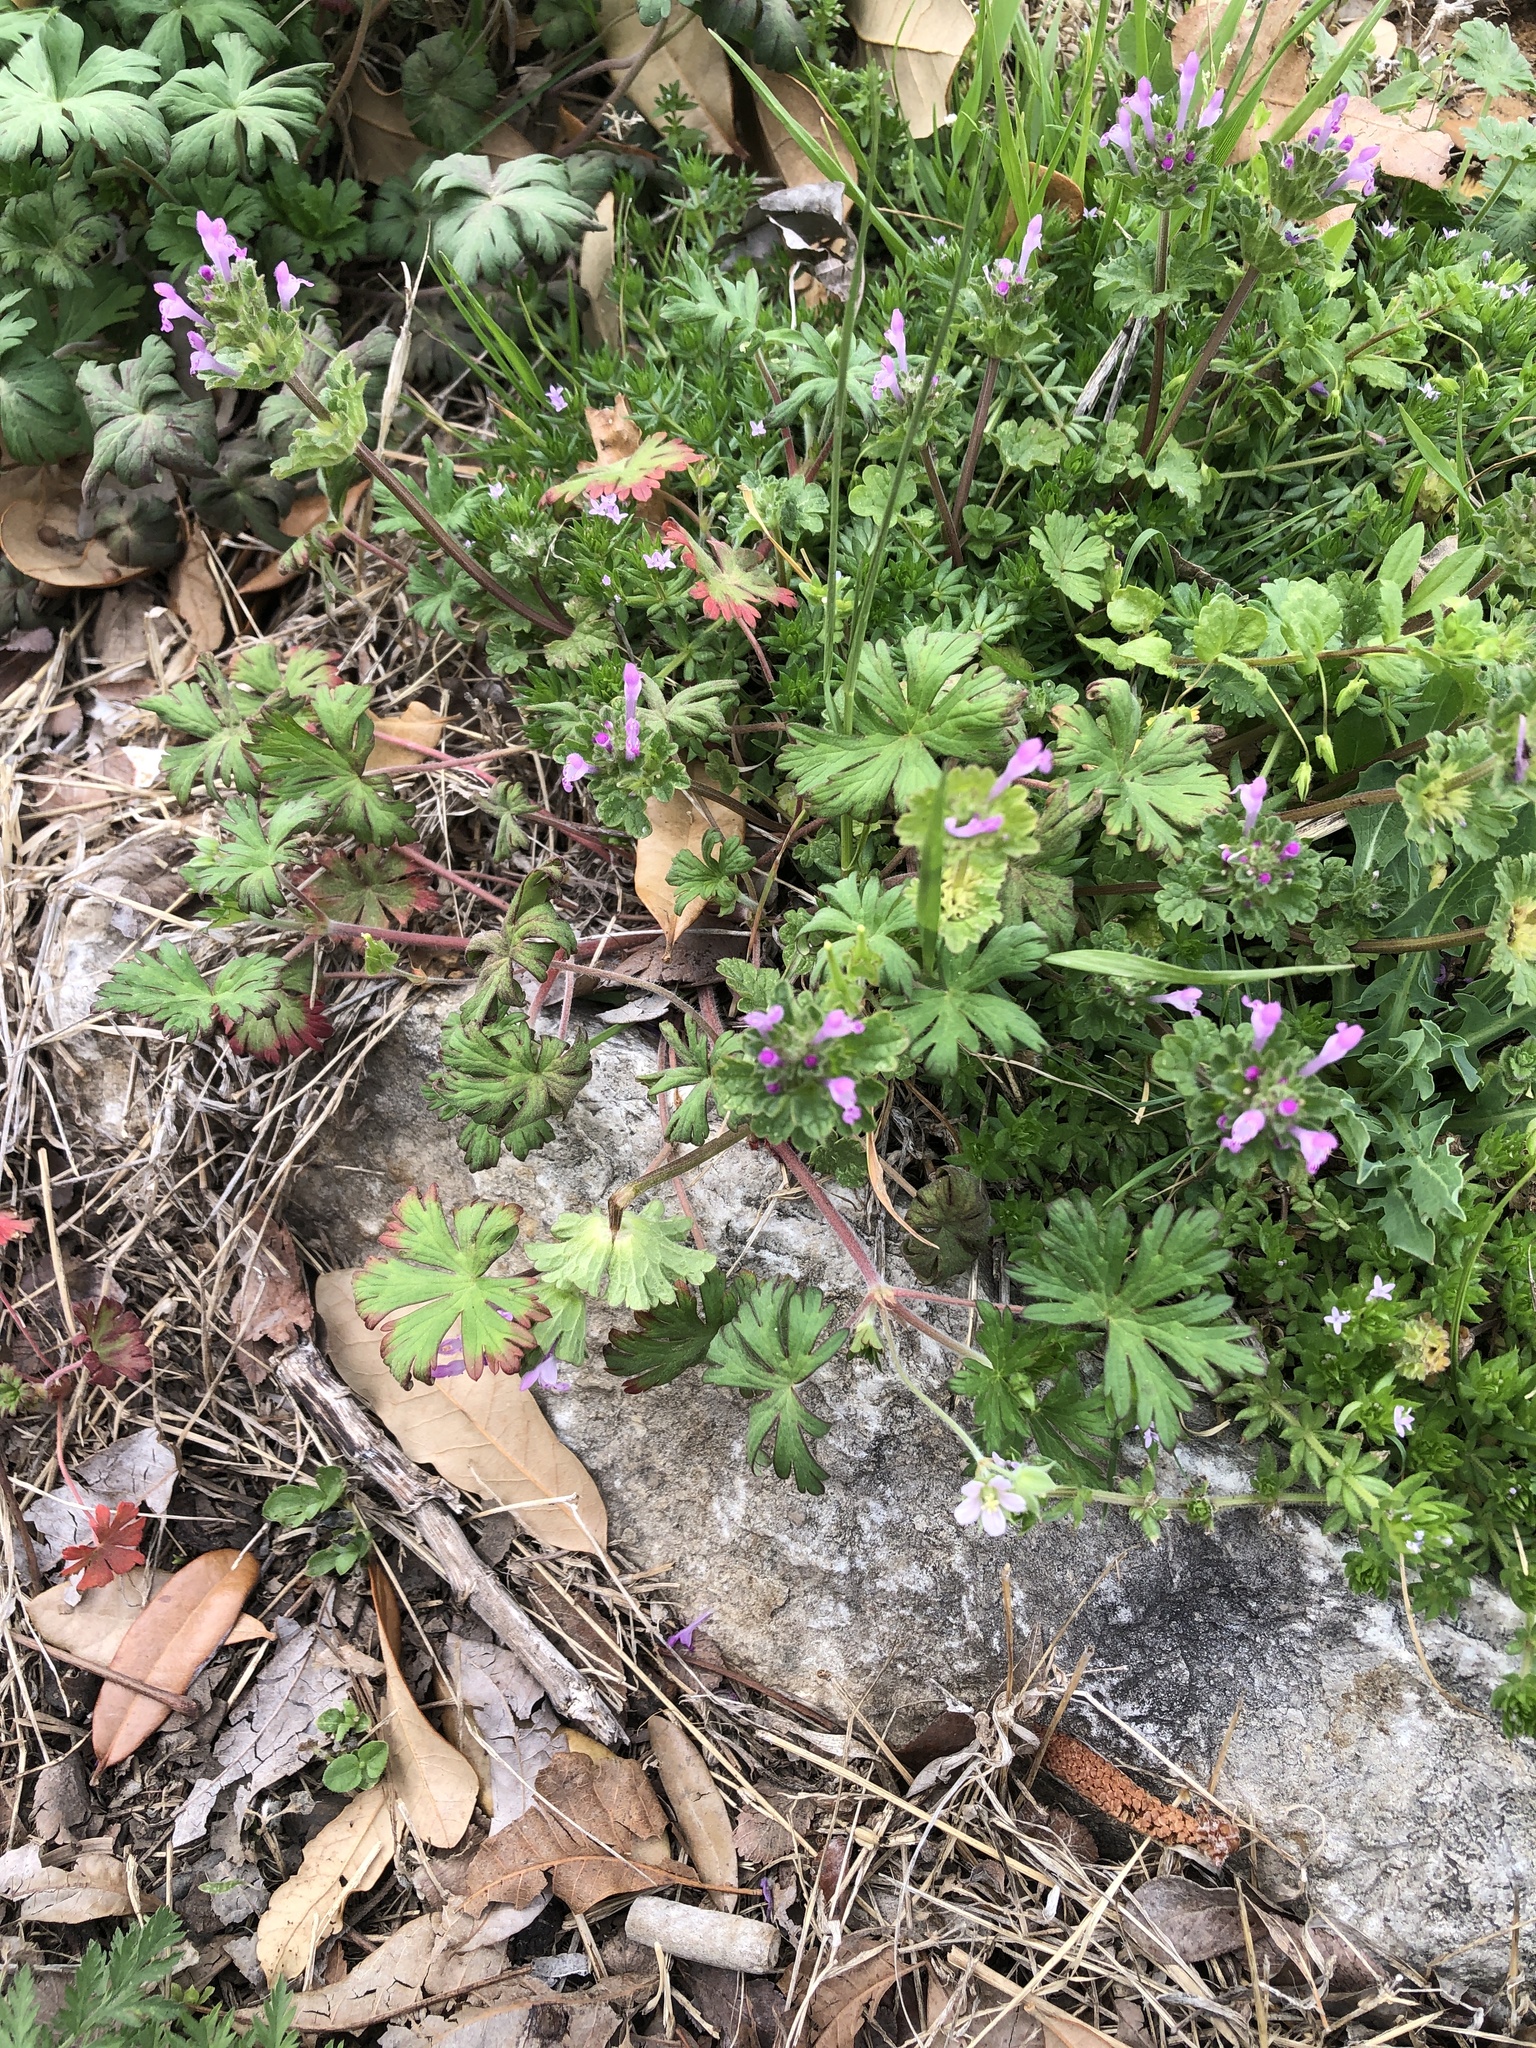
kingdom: Plantae
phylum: Tracheophyta
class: Magnoliopsida
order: Geraniales
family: Geraniaceae
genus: Geranium
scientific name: Geranium carolinianum
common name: Carolina crane's-bill
